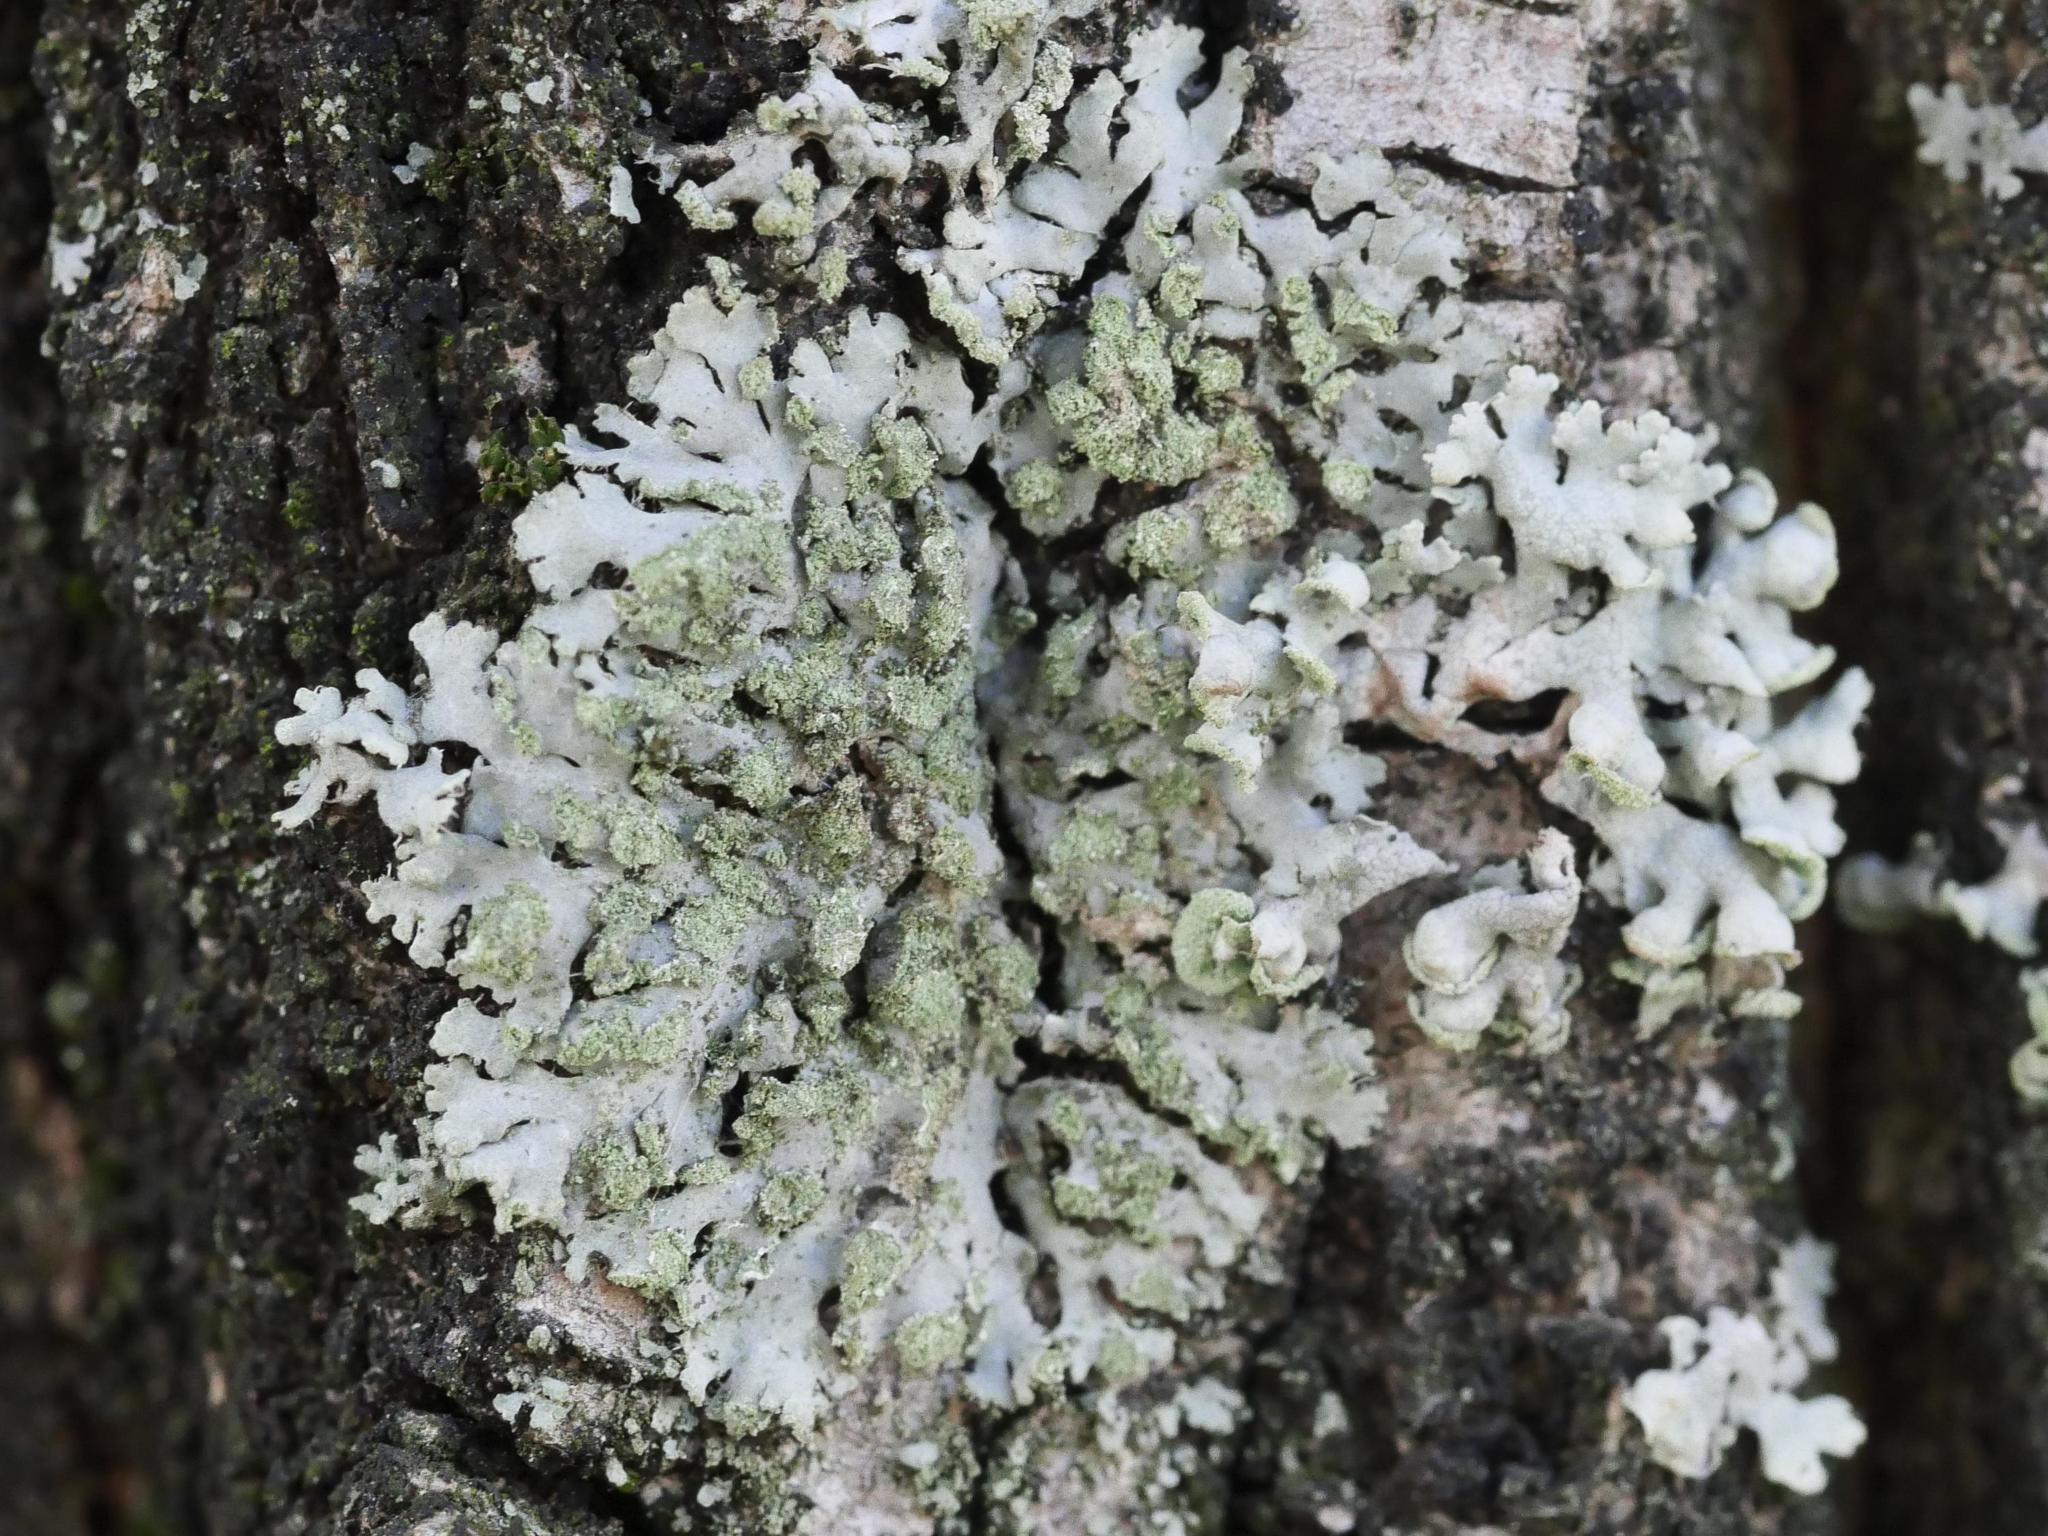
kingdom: Fungi
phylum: Ascomycota
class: Lecanoromycetes
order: Caliciales
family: Physciaceae
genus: Phaeophyscia
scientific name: Phaeophyscia orbicularis
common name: Mealy shadow lichen
